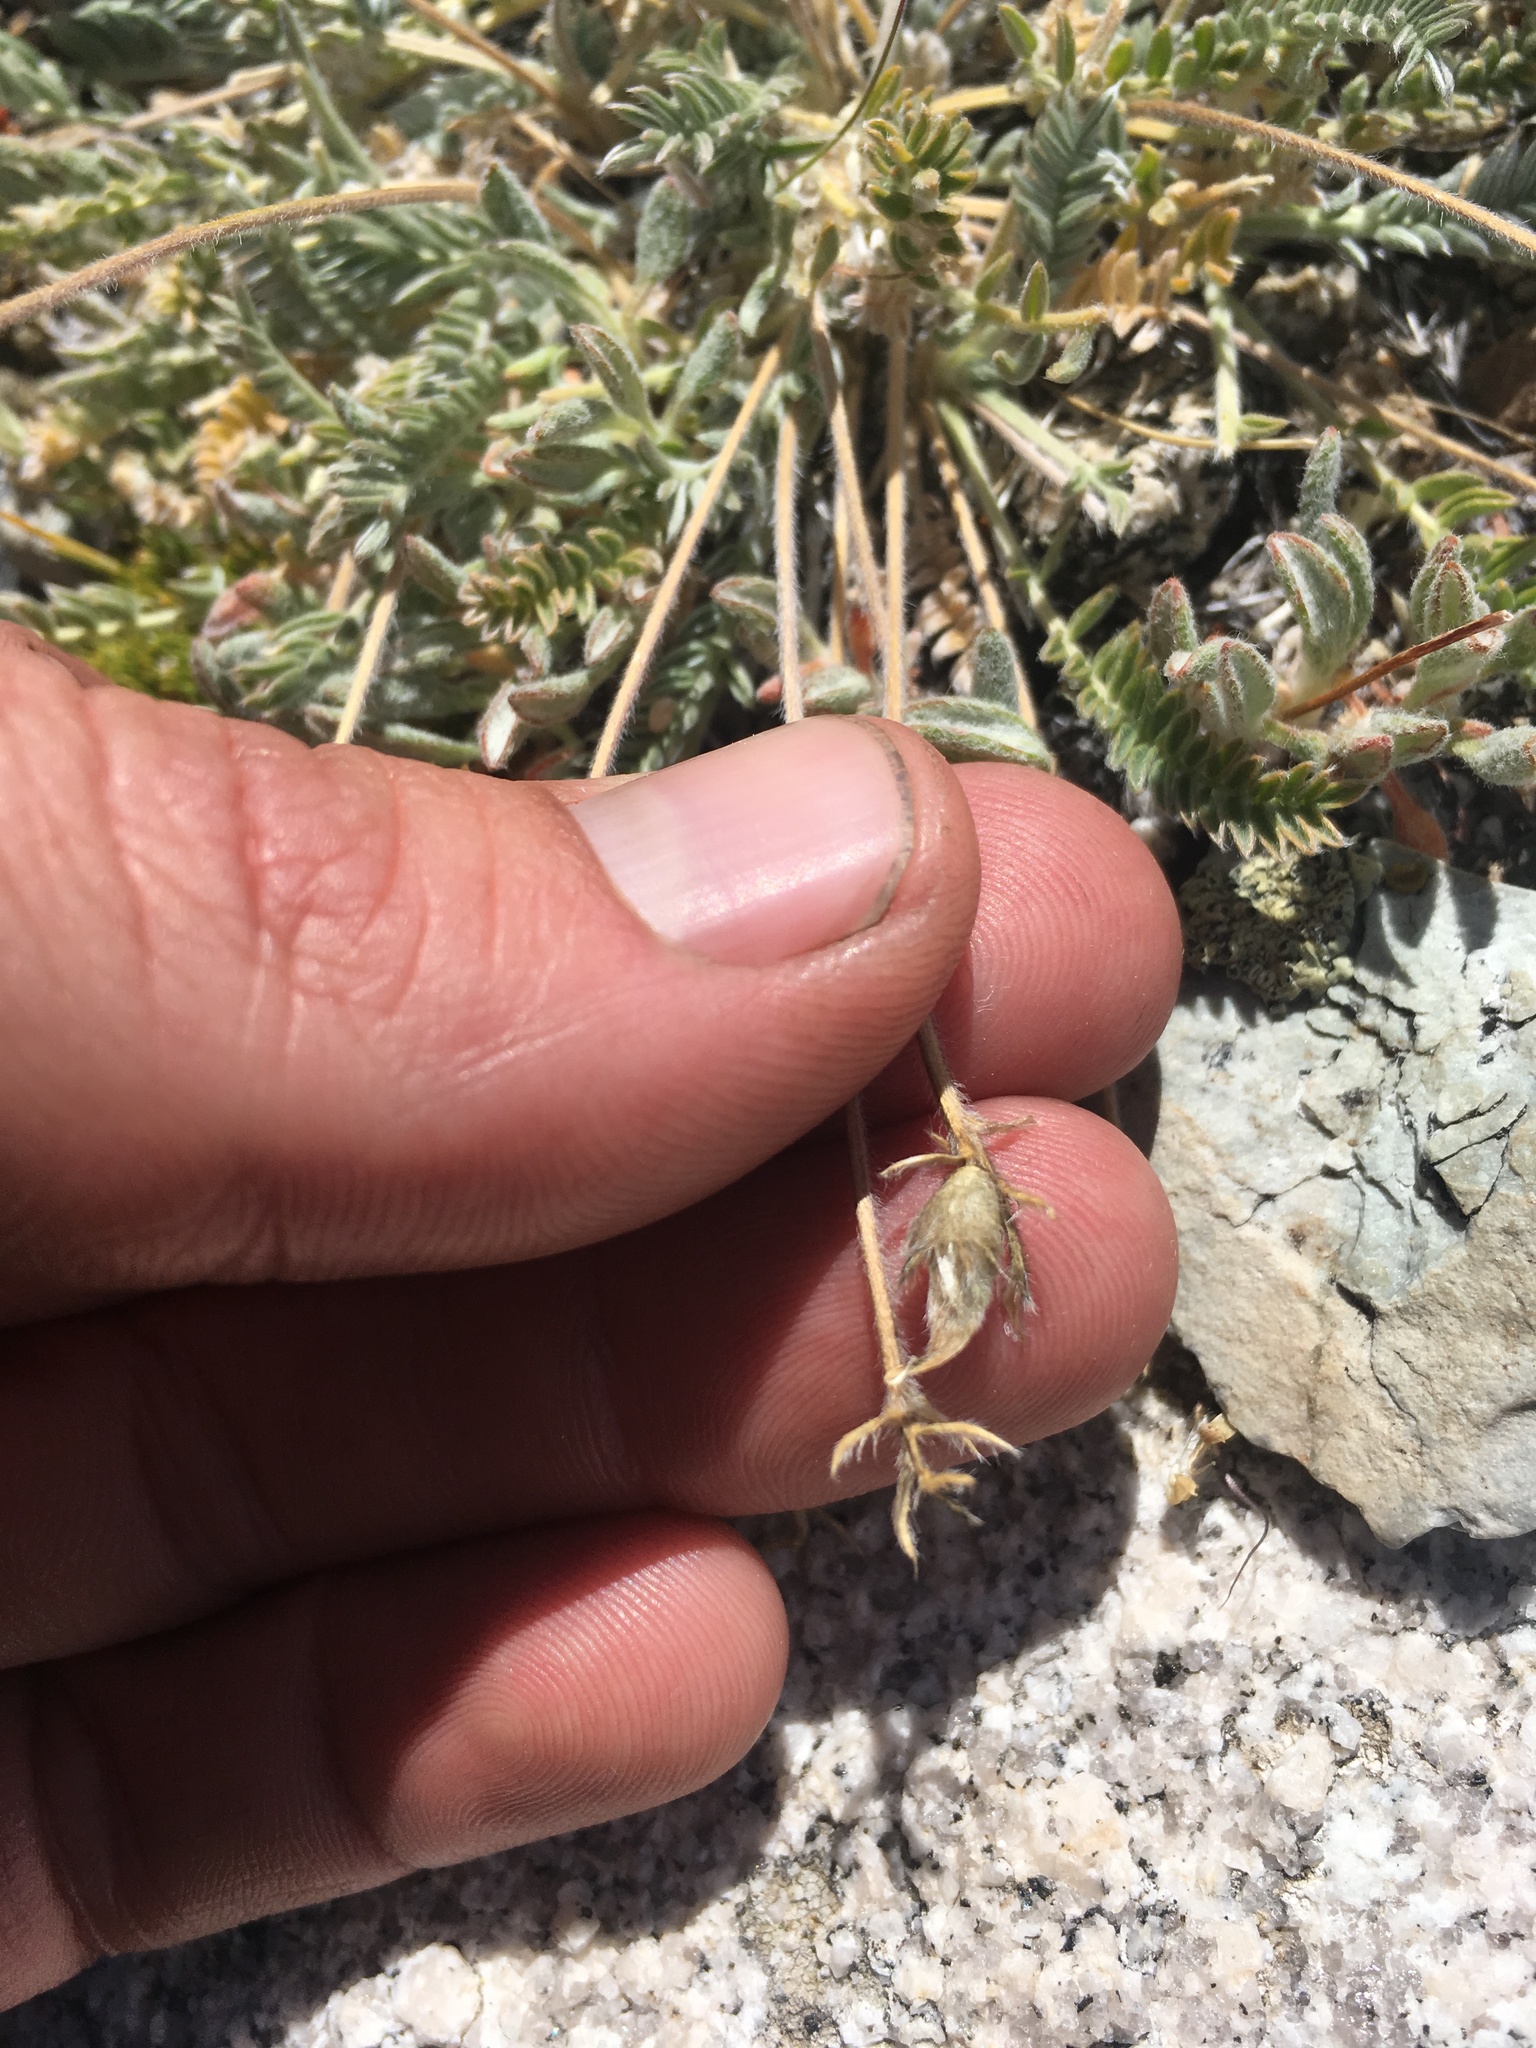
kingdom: Plantae
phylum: Tracheophyta
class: Magnoliopsida
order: Fabales
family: Fabaceae
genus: Oxytropis
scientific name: Oxytropis parryi
